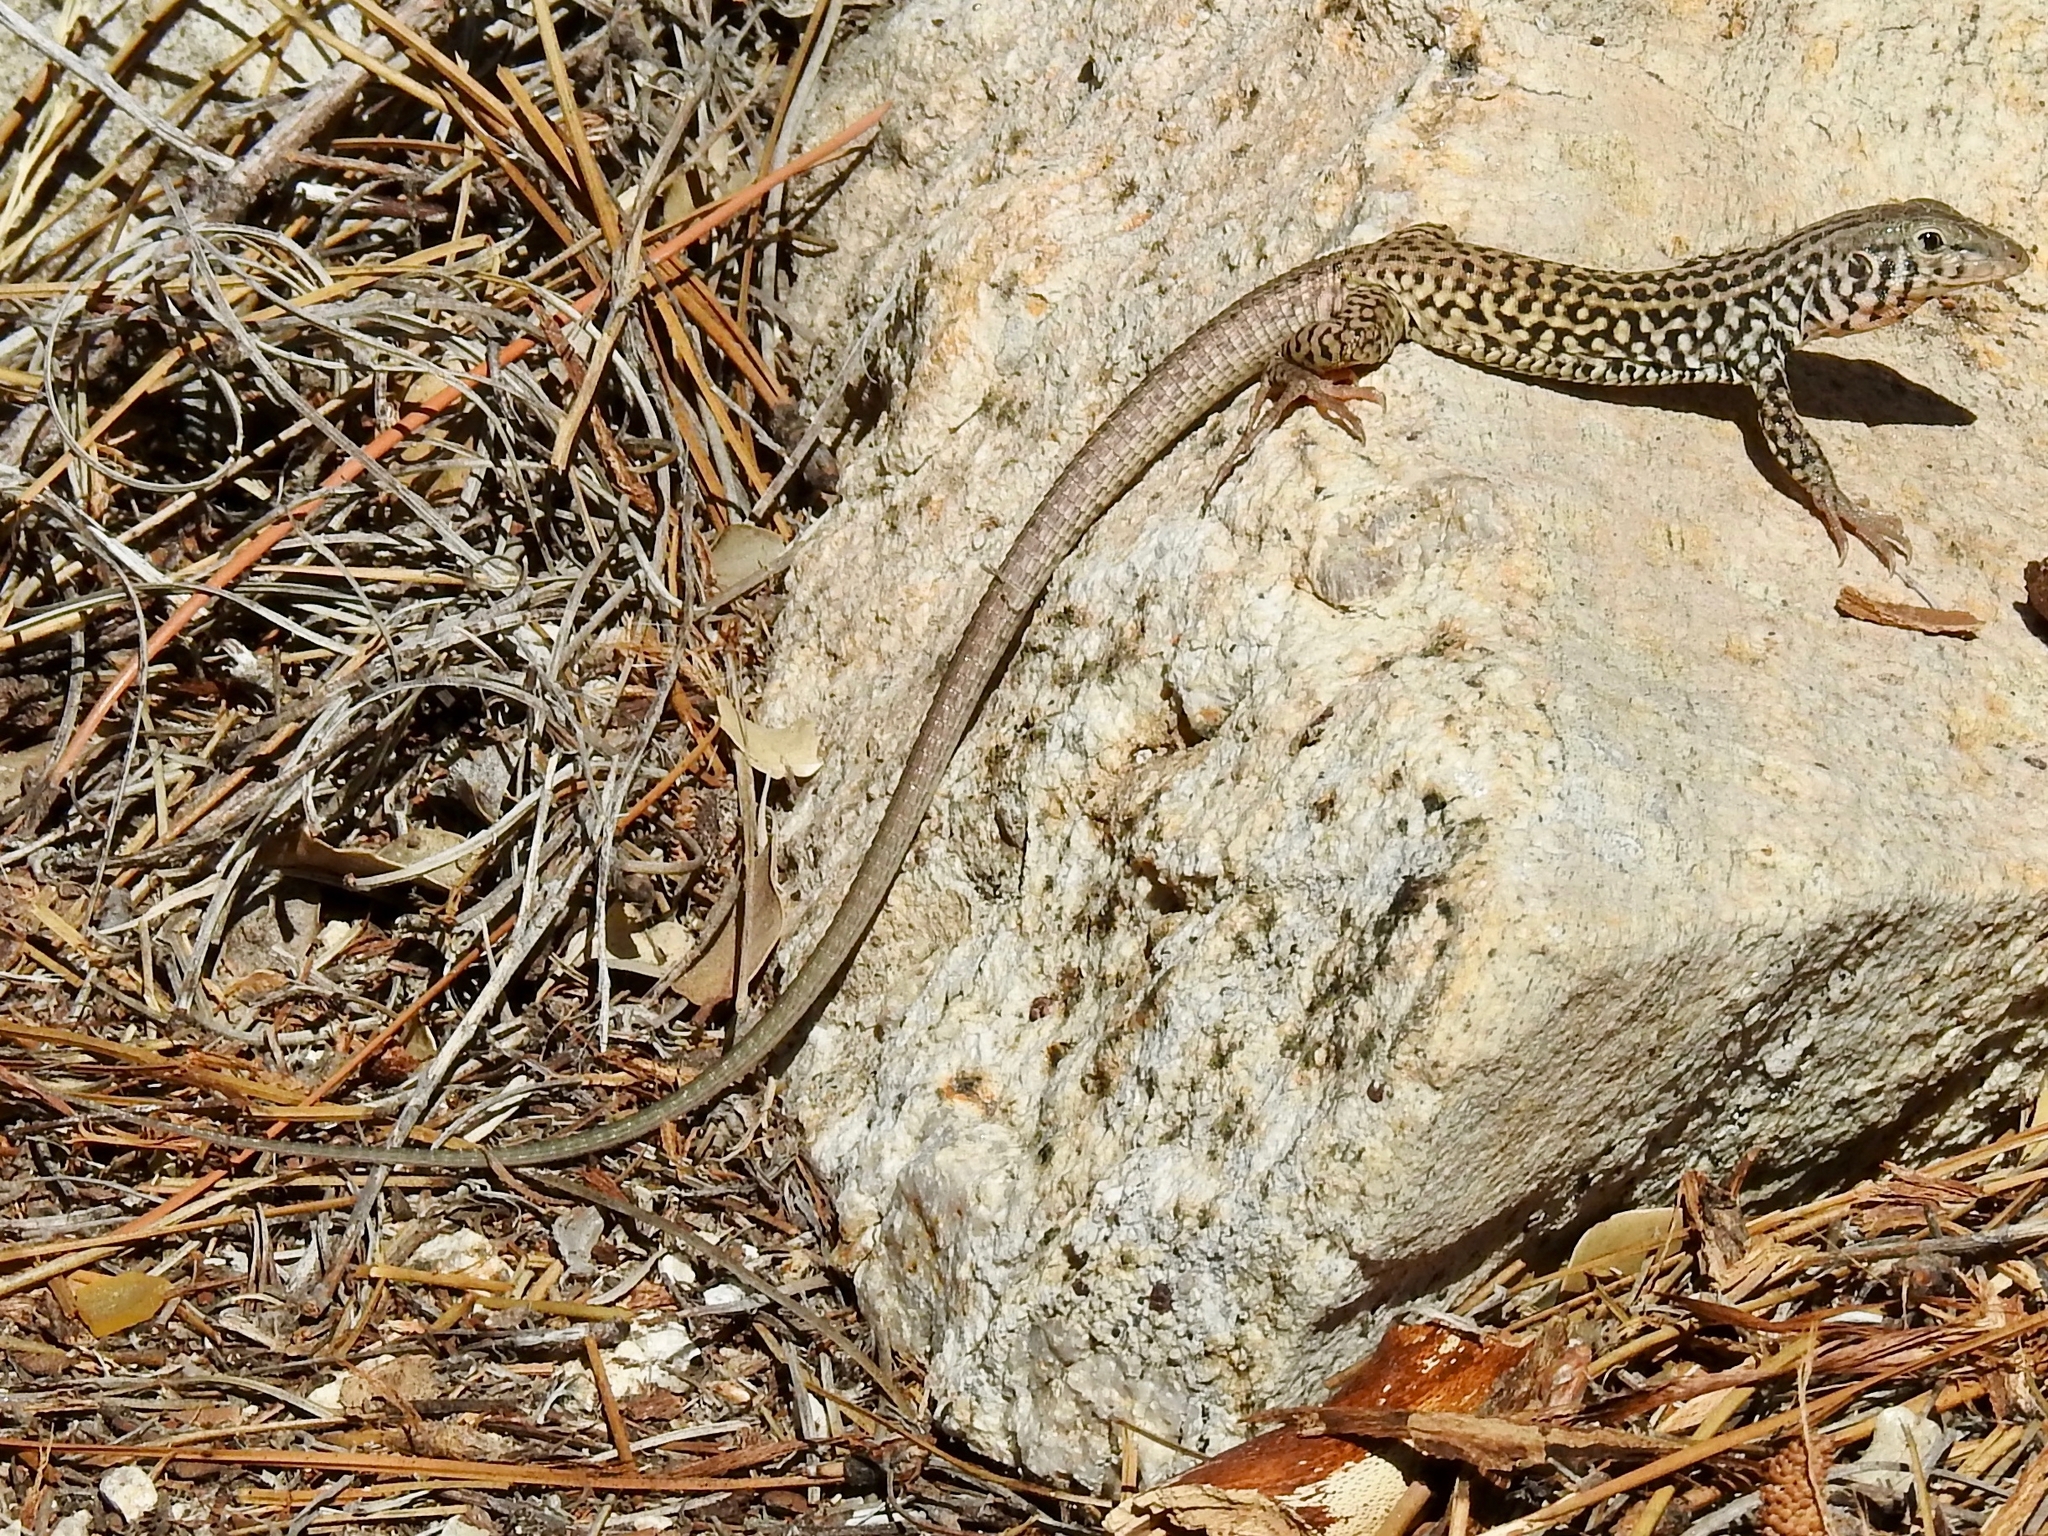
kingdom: Animalia
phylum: Chordata
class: Squamata
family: Teiidae
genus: Aspidoscelis
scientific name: Aspidoscelis tigris
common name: Tiger whiptail
